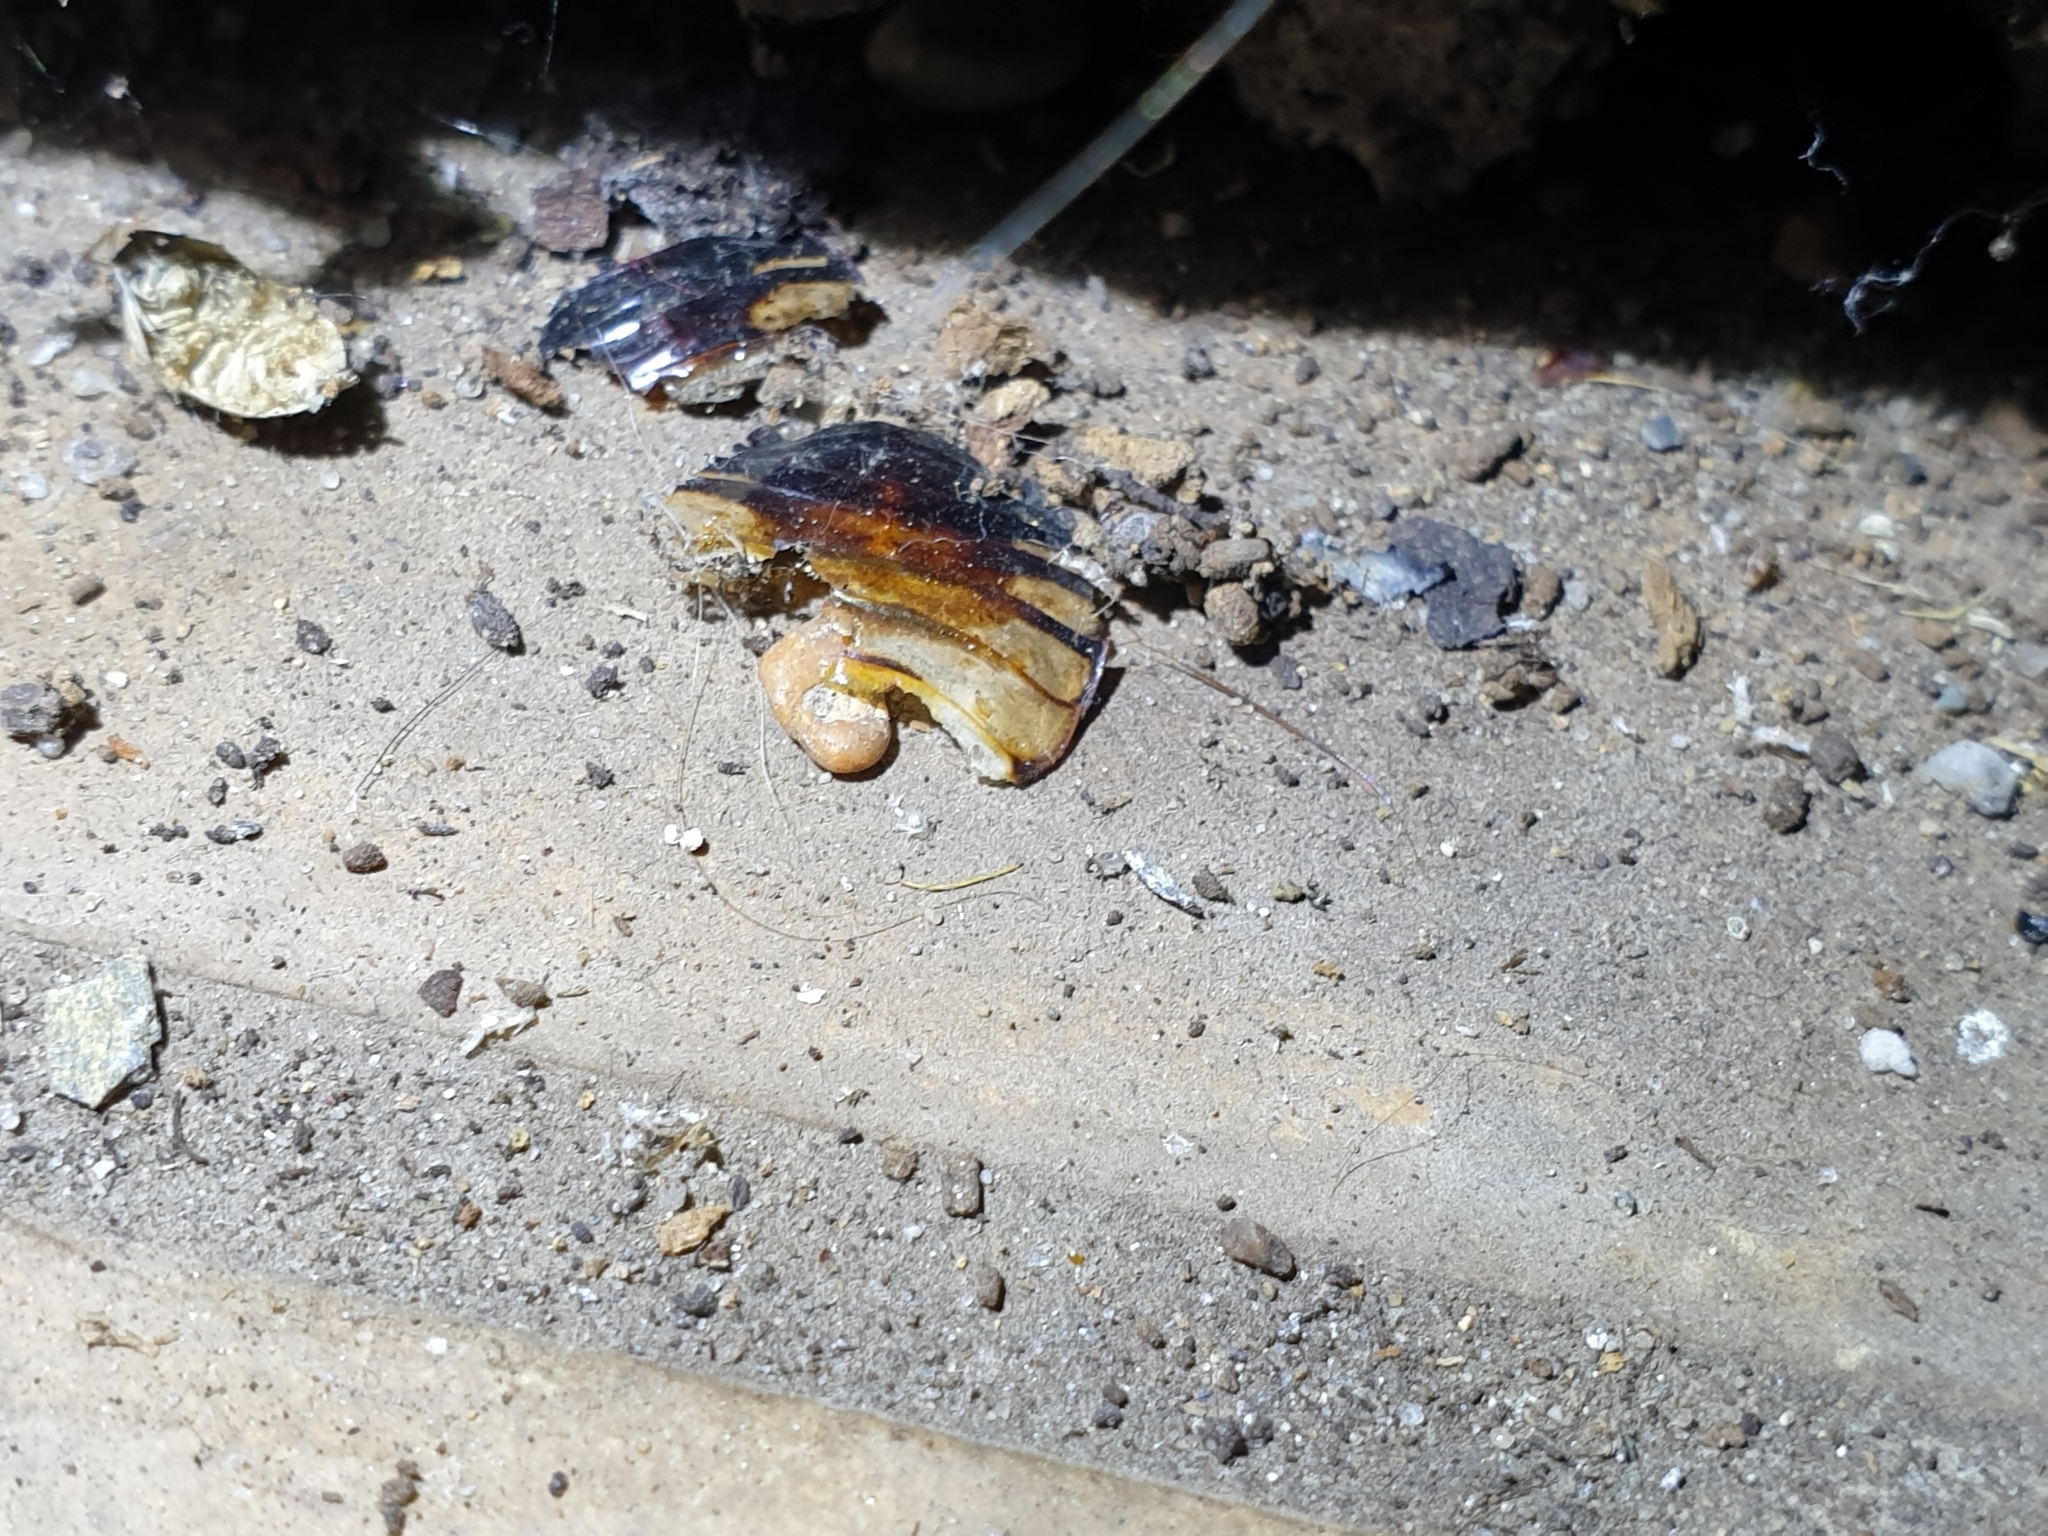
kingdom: Animalia
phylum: Arthropoda
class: Insecta
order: Blattodea
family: Blattidae
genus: Periplaneta
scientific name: Periplaneta australasiae
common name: Australian cockroach
